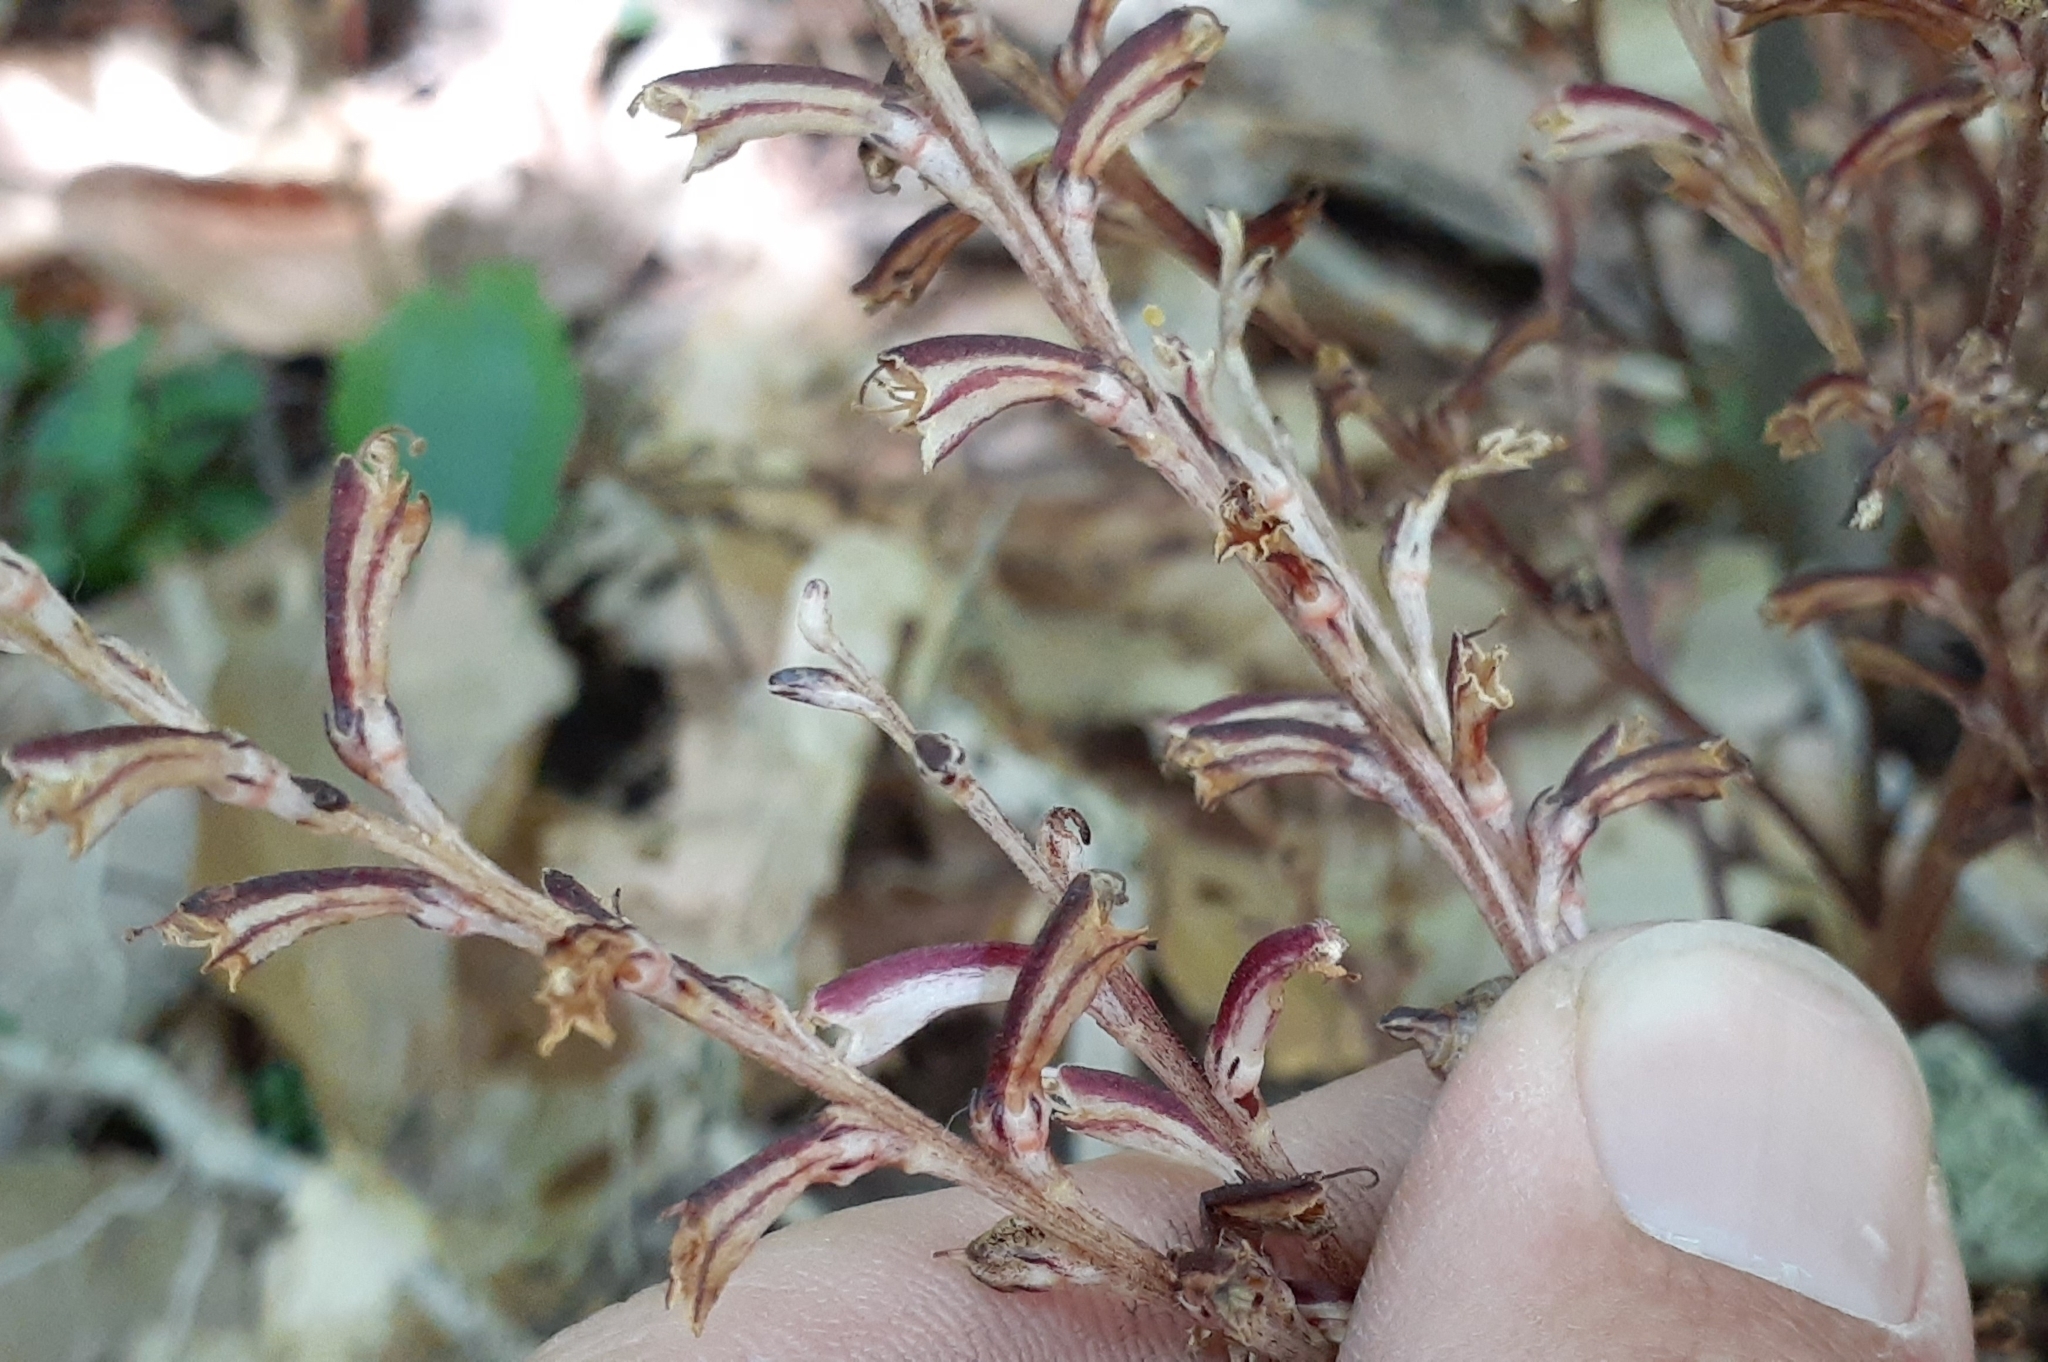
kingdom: Plantae
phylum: Tracheophyta
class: Magnoliopsida
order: Lamiales
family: Orobanchaceae
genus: Epifagus
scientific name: Epifagus virginiana
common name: Beechdrops
